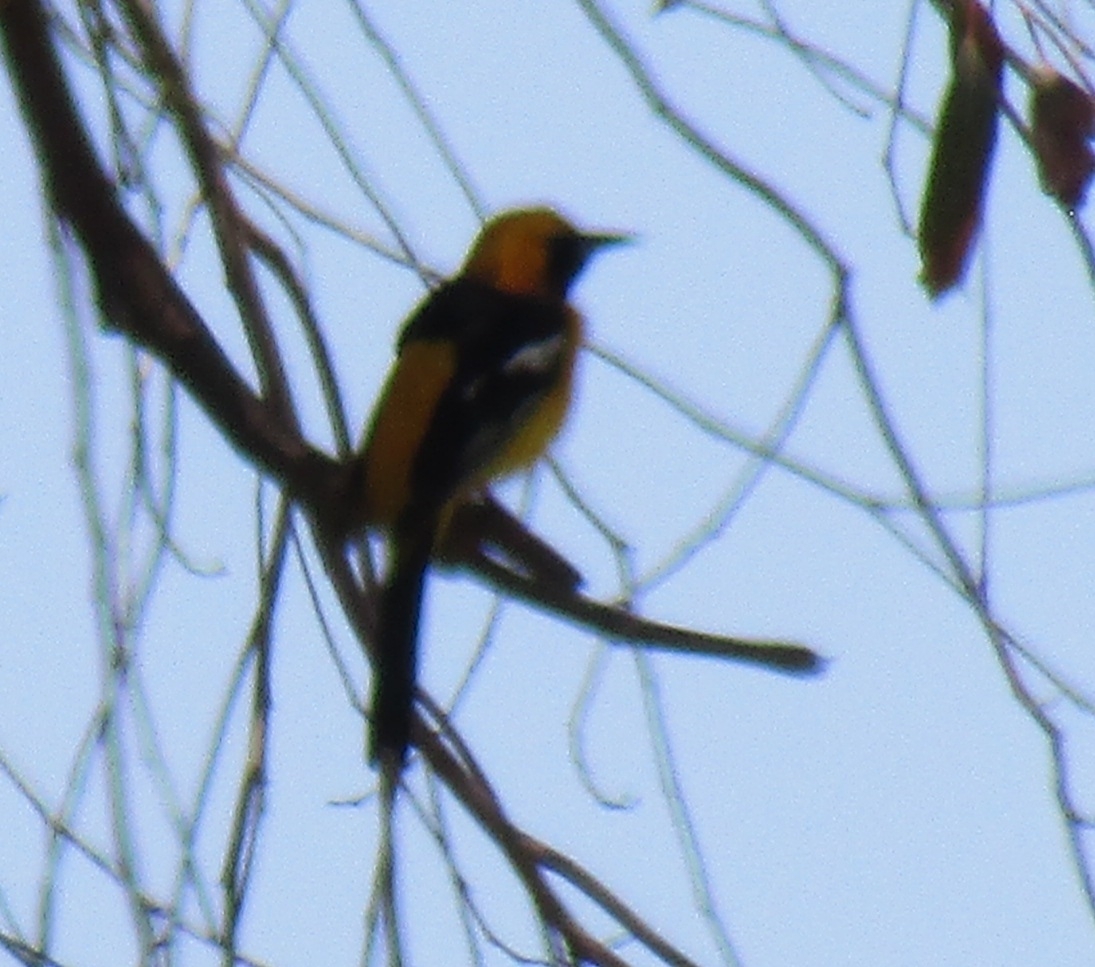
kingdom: Animalia
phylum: Chordata
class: Aves
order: Passeriformes
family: Icteridae
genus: Icterus
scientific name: Icterus cucullatus
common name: Hooded oriole
